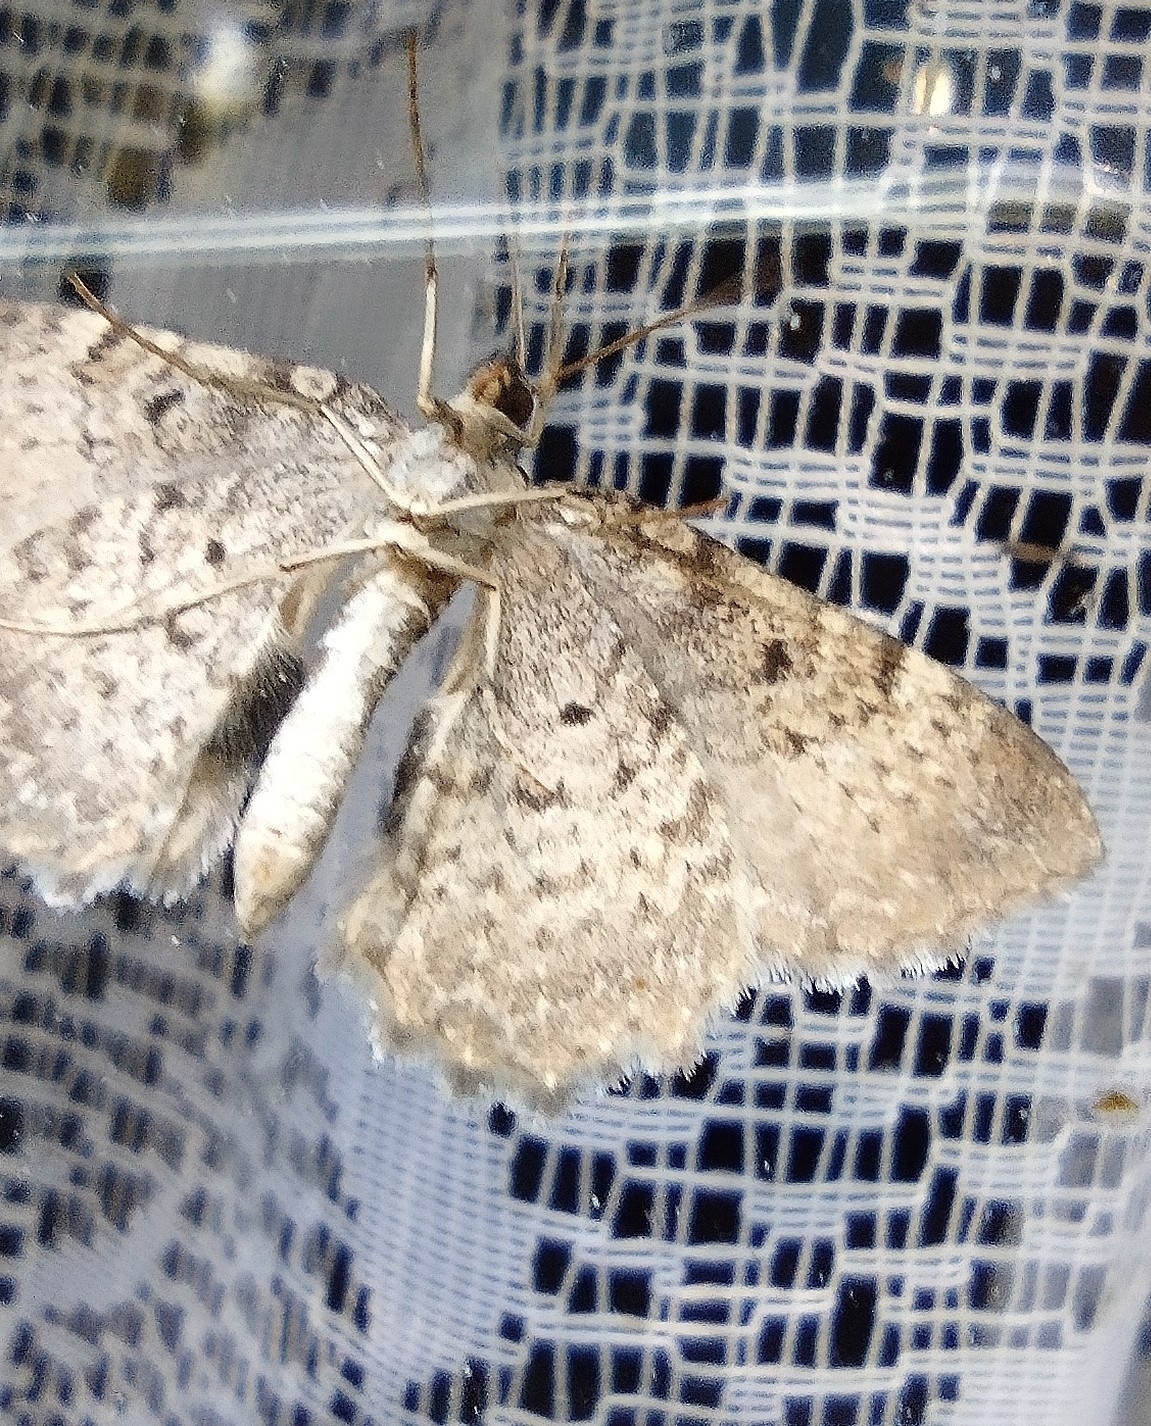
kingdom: Animalia
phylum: Arthropoda
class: Insecta
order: Lepidoptera
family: Geometridae
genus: Rheumaptera
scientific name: Rheumaptera undulata
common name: Scallop shell
